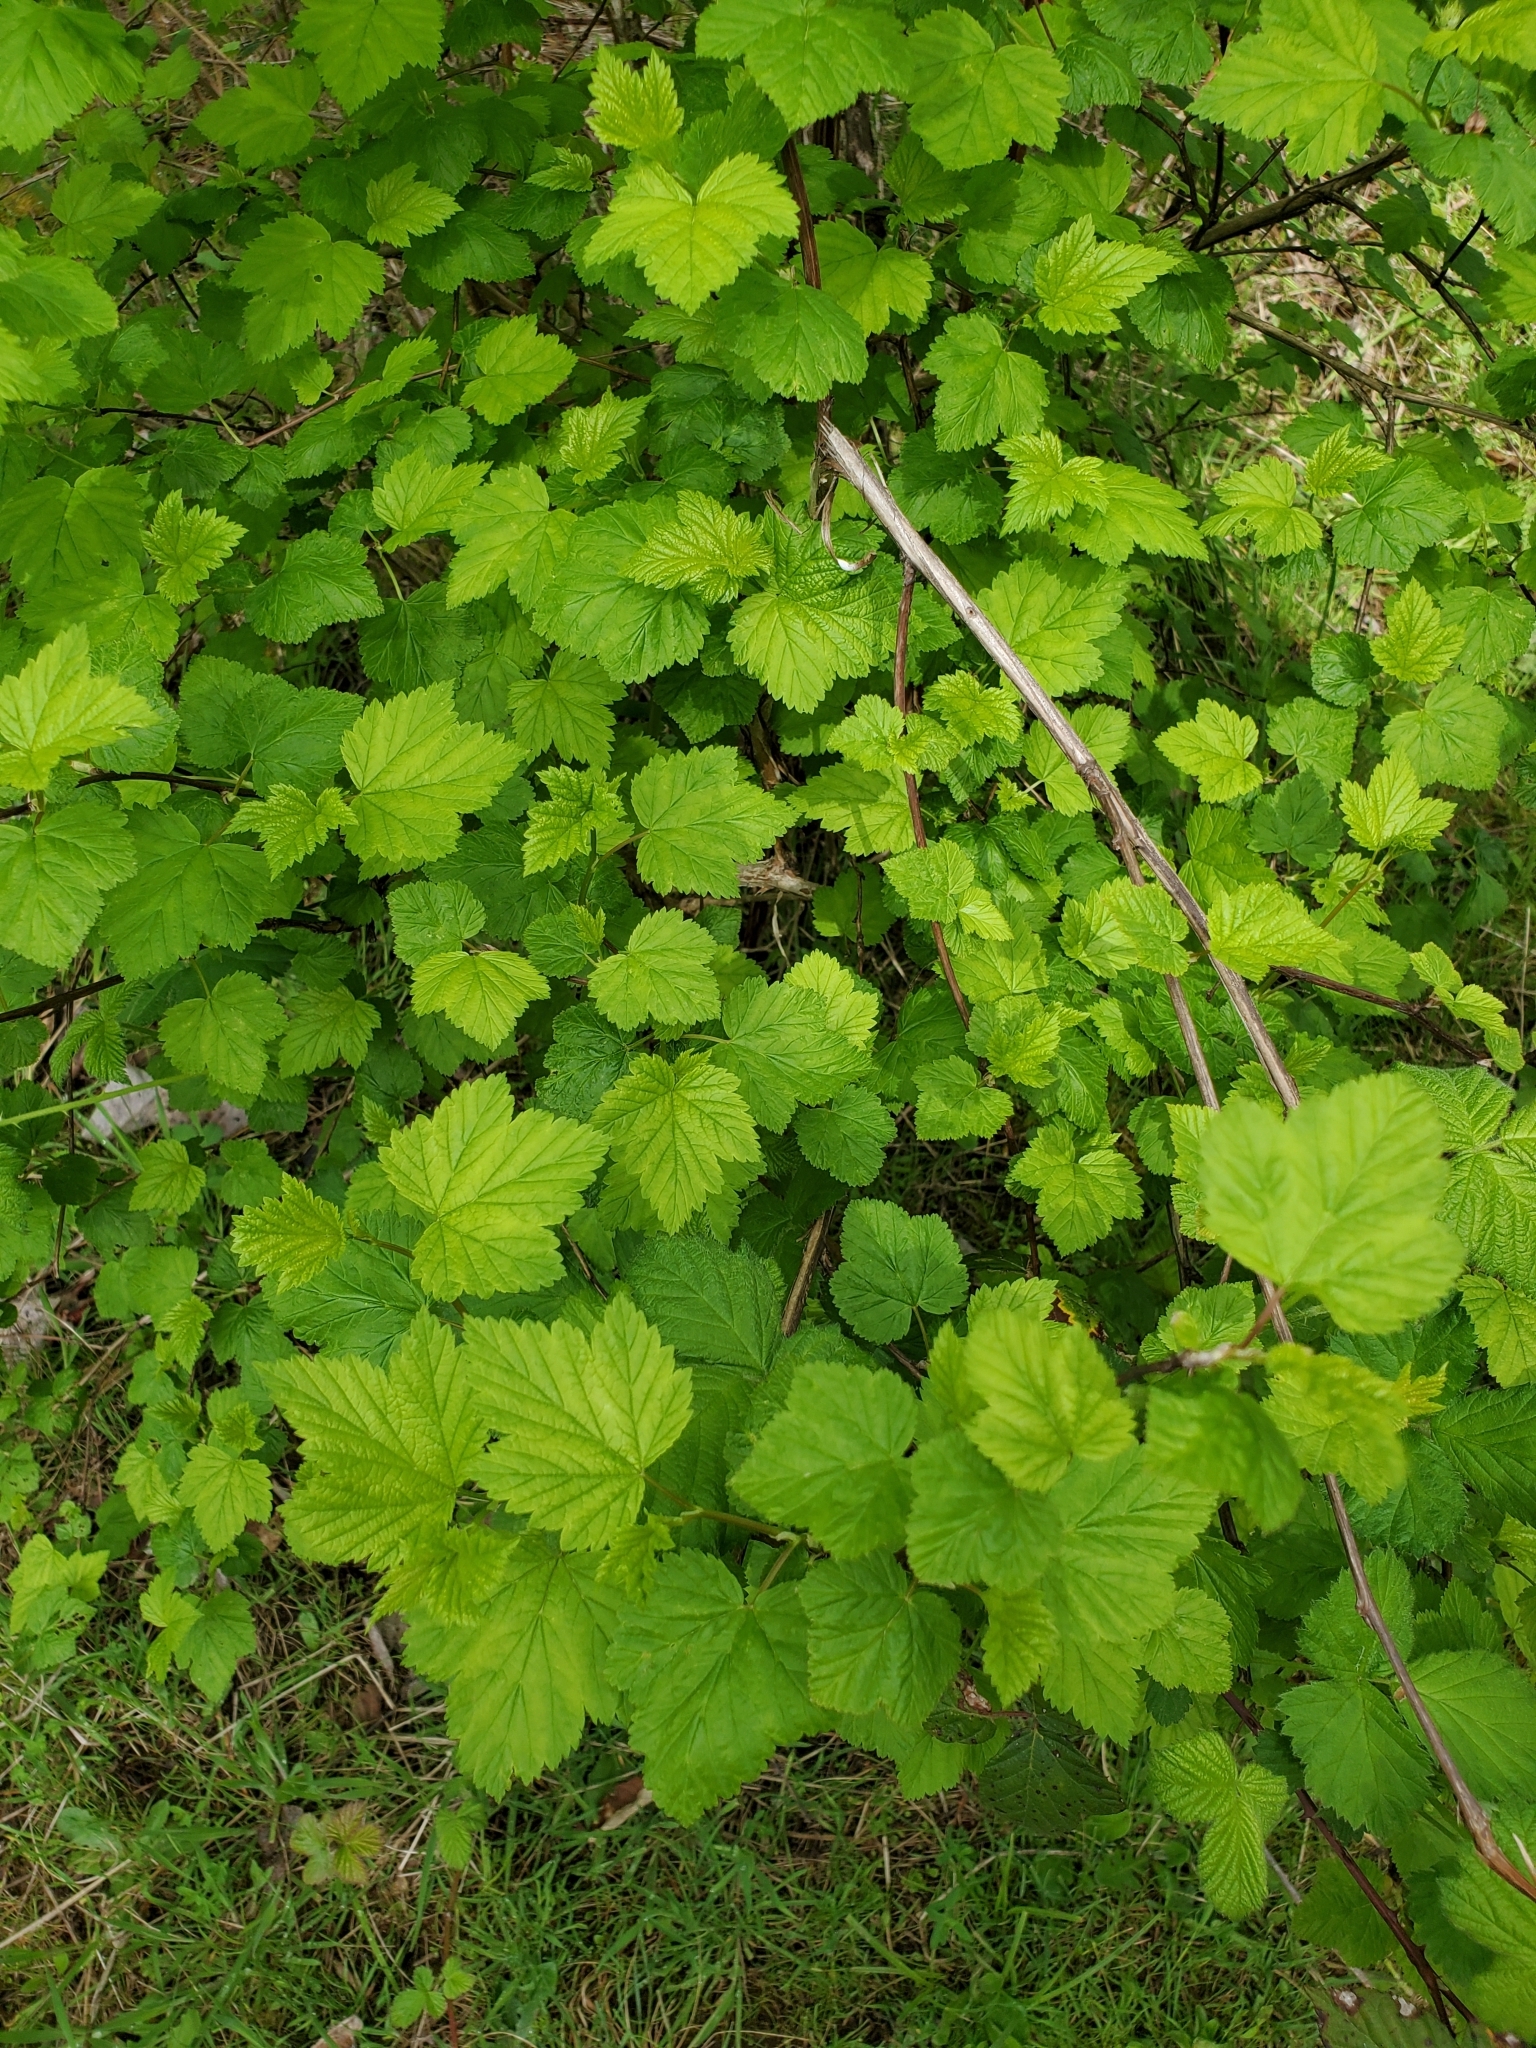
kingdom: Plantae
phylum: Tracheophyta
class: Magnoliopsida
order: Rosales
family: Rosaceae
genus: Physocarpus
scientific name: Physocarpus capitatus
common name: Pacific ninebark
